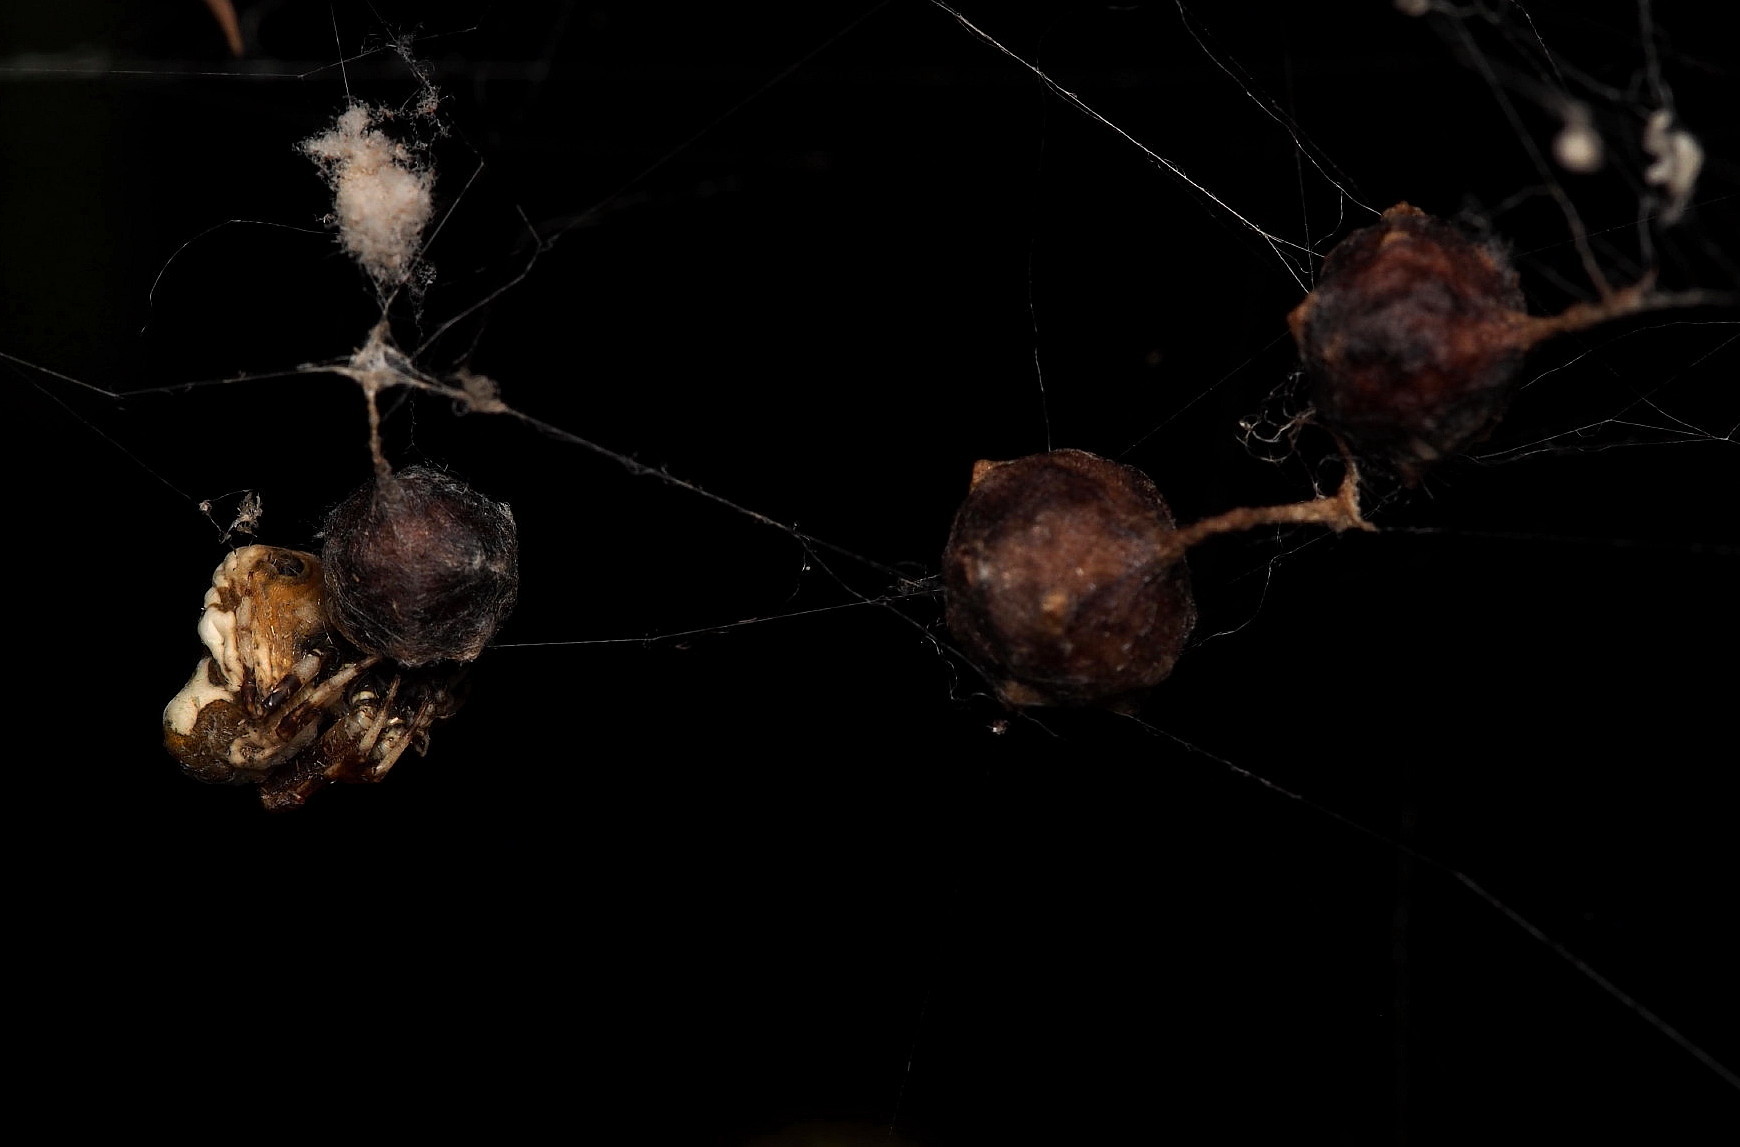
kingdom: Animalia
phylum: Arthropoda
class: Arachnida
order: Araneae
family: Araneidae
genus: Celaenia
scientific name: Celaenia olivacea
